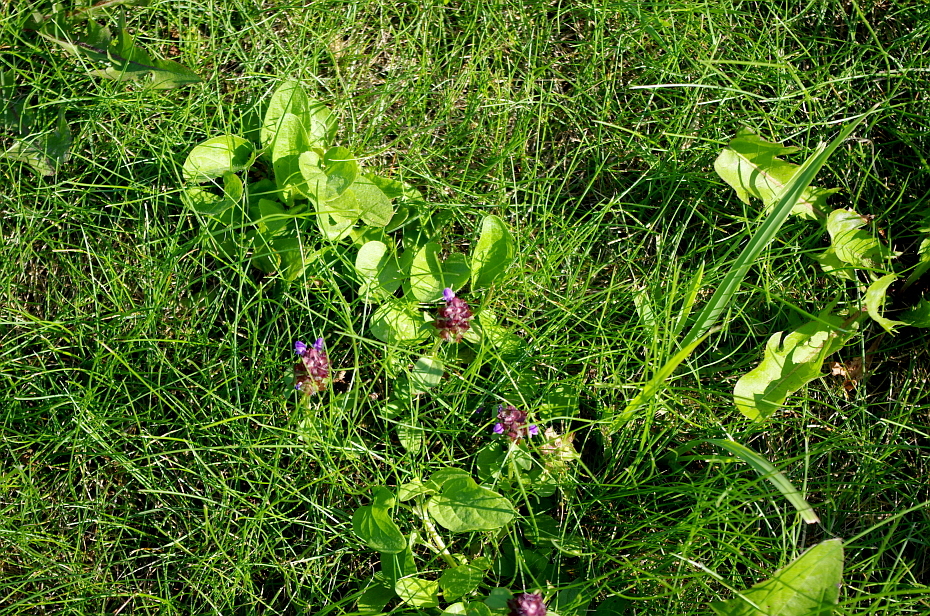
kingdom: Plantae
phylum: Tracheophyta
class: Magnoliopsida
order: Lamiales
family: Lamiaceae
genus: Prunella
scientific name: Prunella vulgaris
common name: Heal-all
